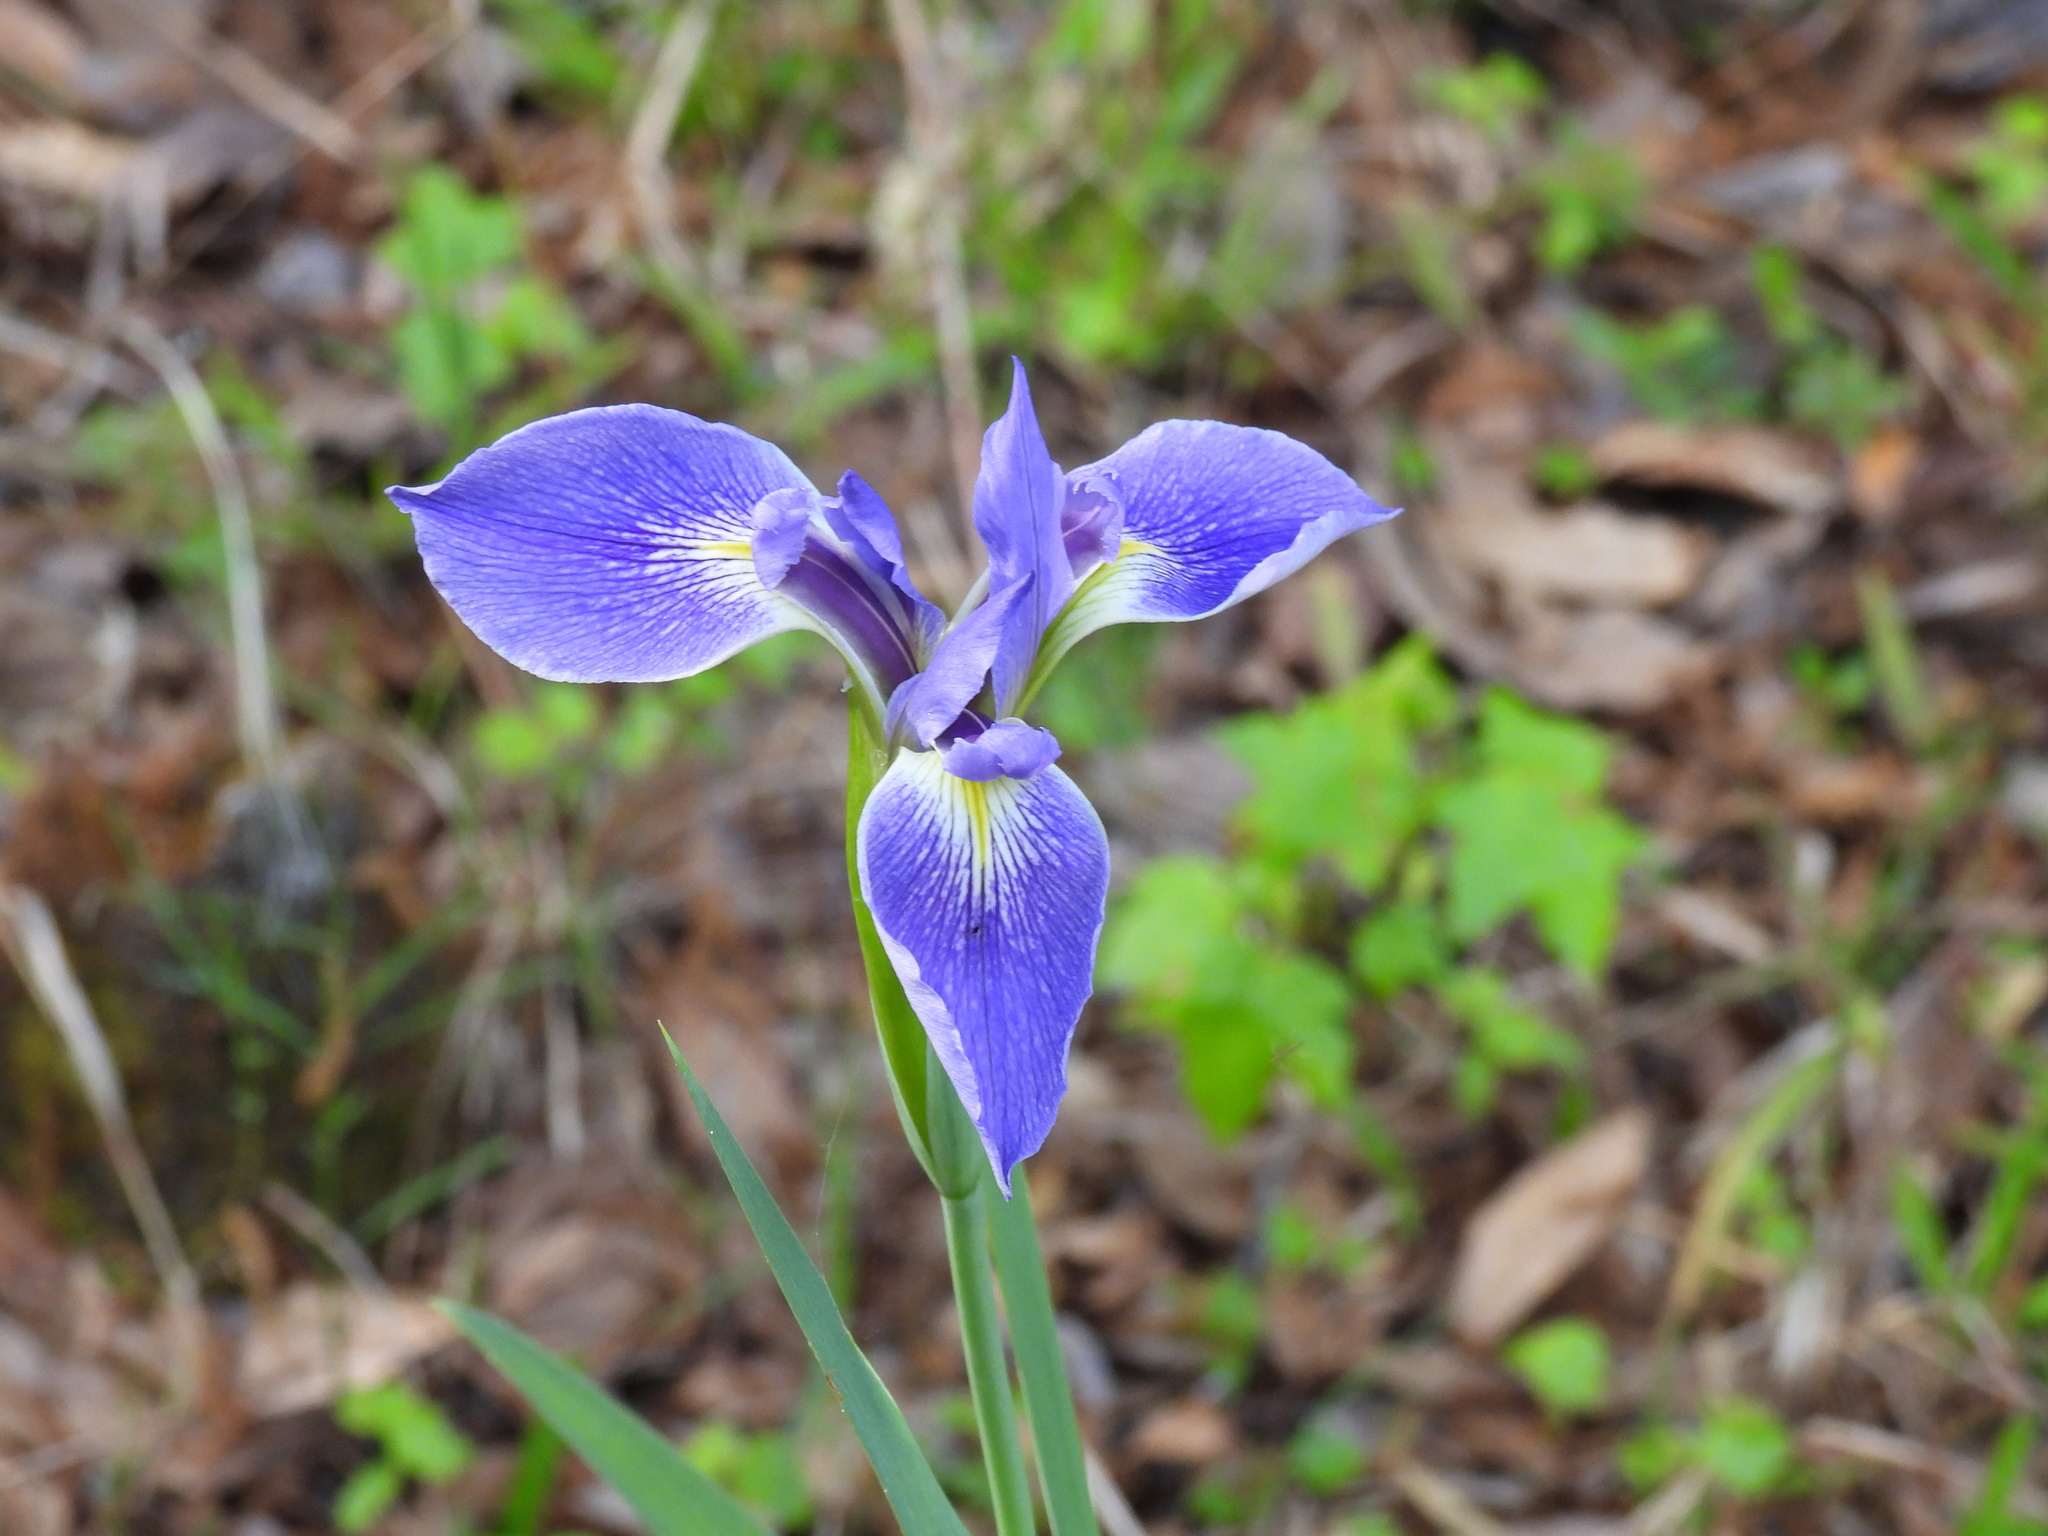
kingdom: Plantae
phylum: Tracheophyta
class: Liliopsida
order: Asparagales
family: Iridaceae
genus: Iris
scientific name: Iris savannarum
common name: Prairie iris
